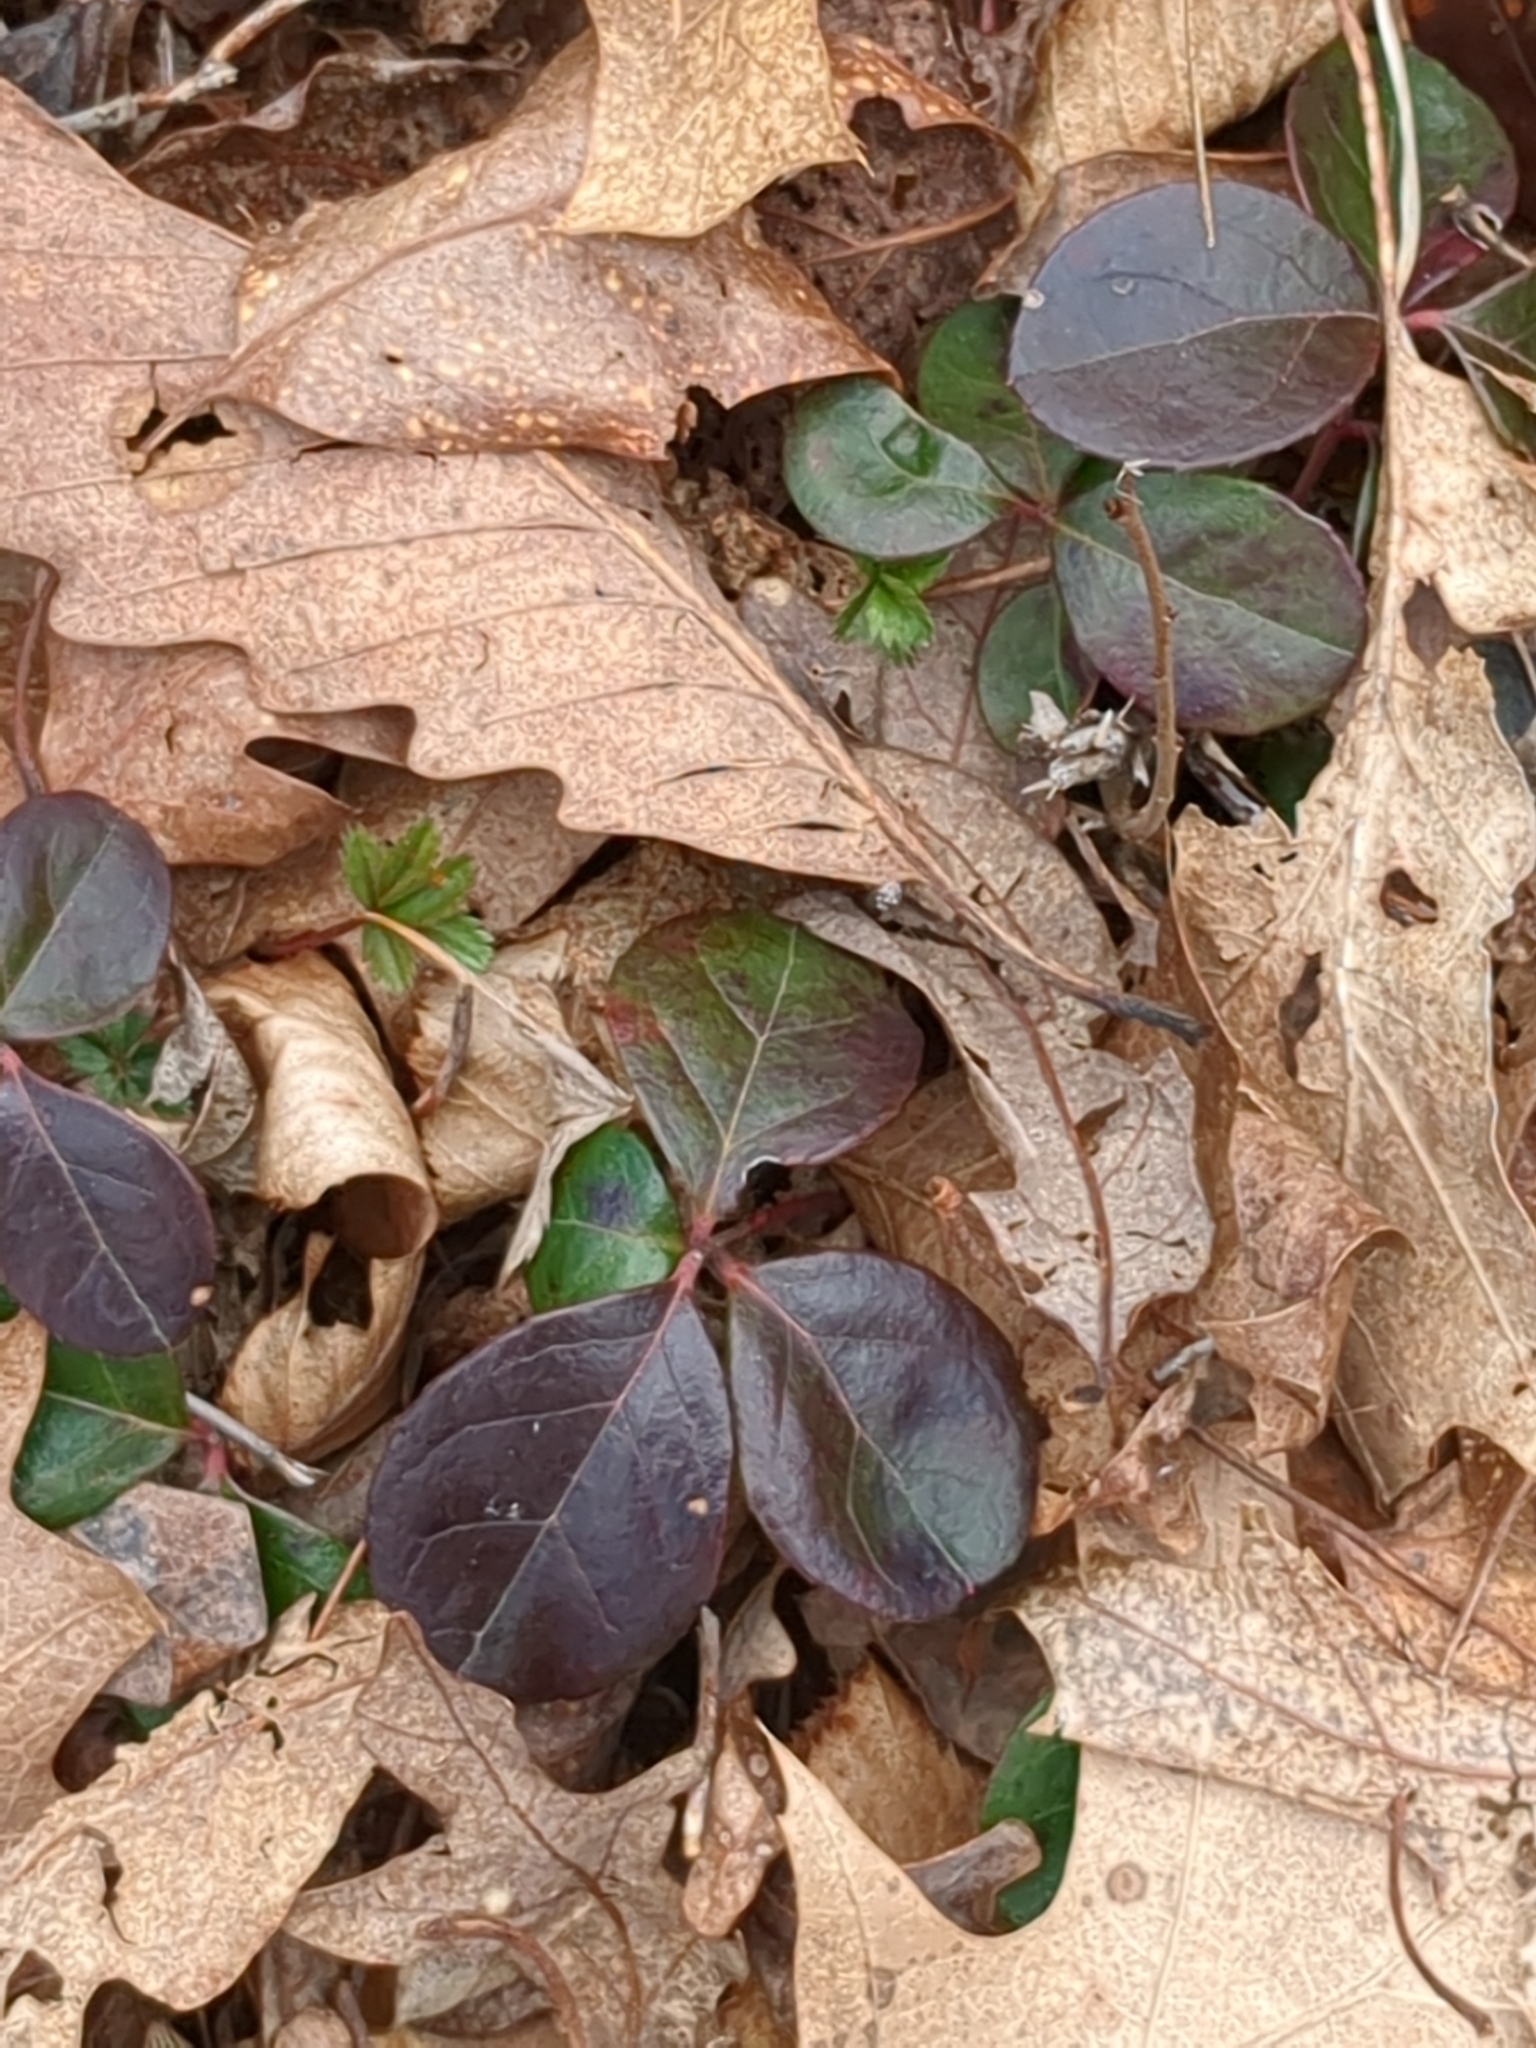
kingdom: Plantae
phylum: Tracheophyta
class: Magnoliopsida
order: Ericales
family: Ericaceae
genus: Gaultheria
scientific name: Gaultheria procumbens
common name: Checkerberry
